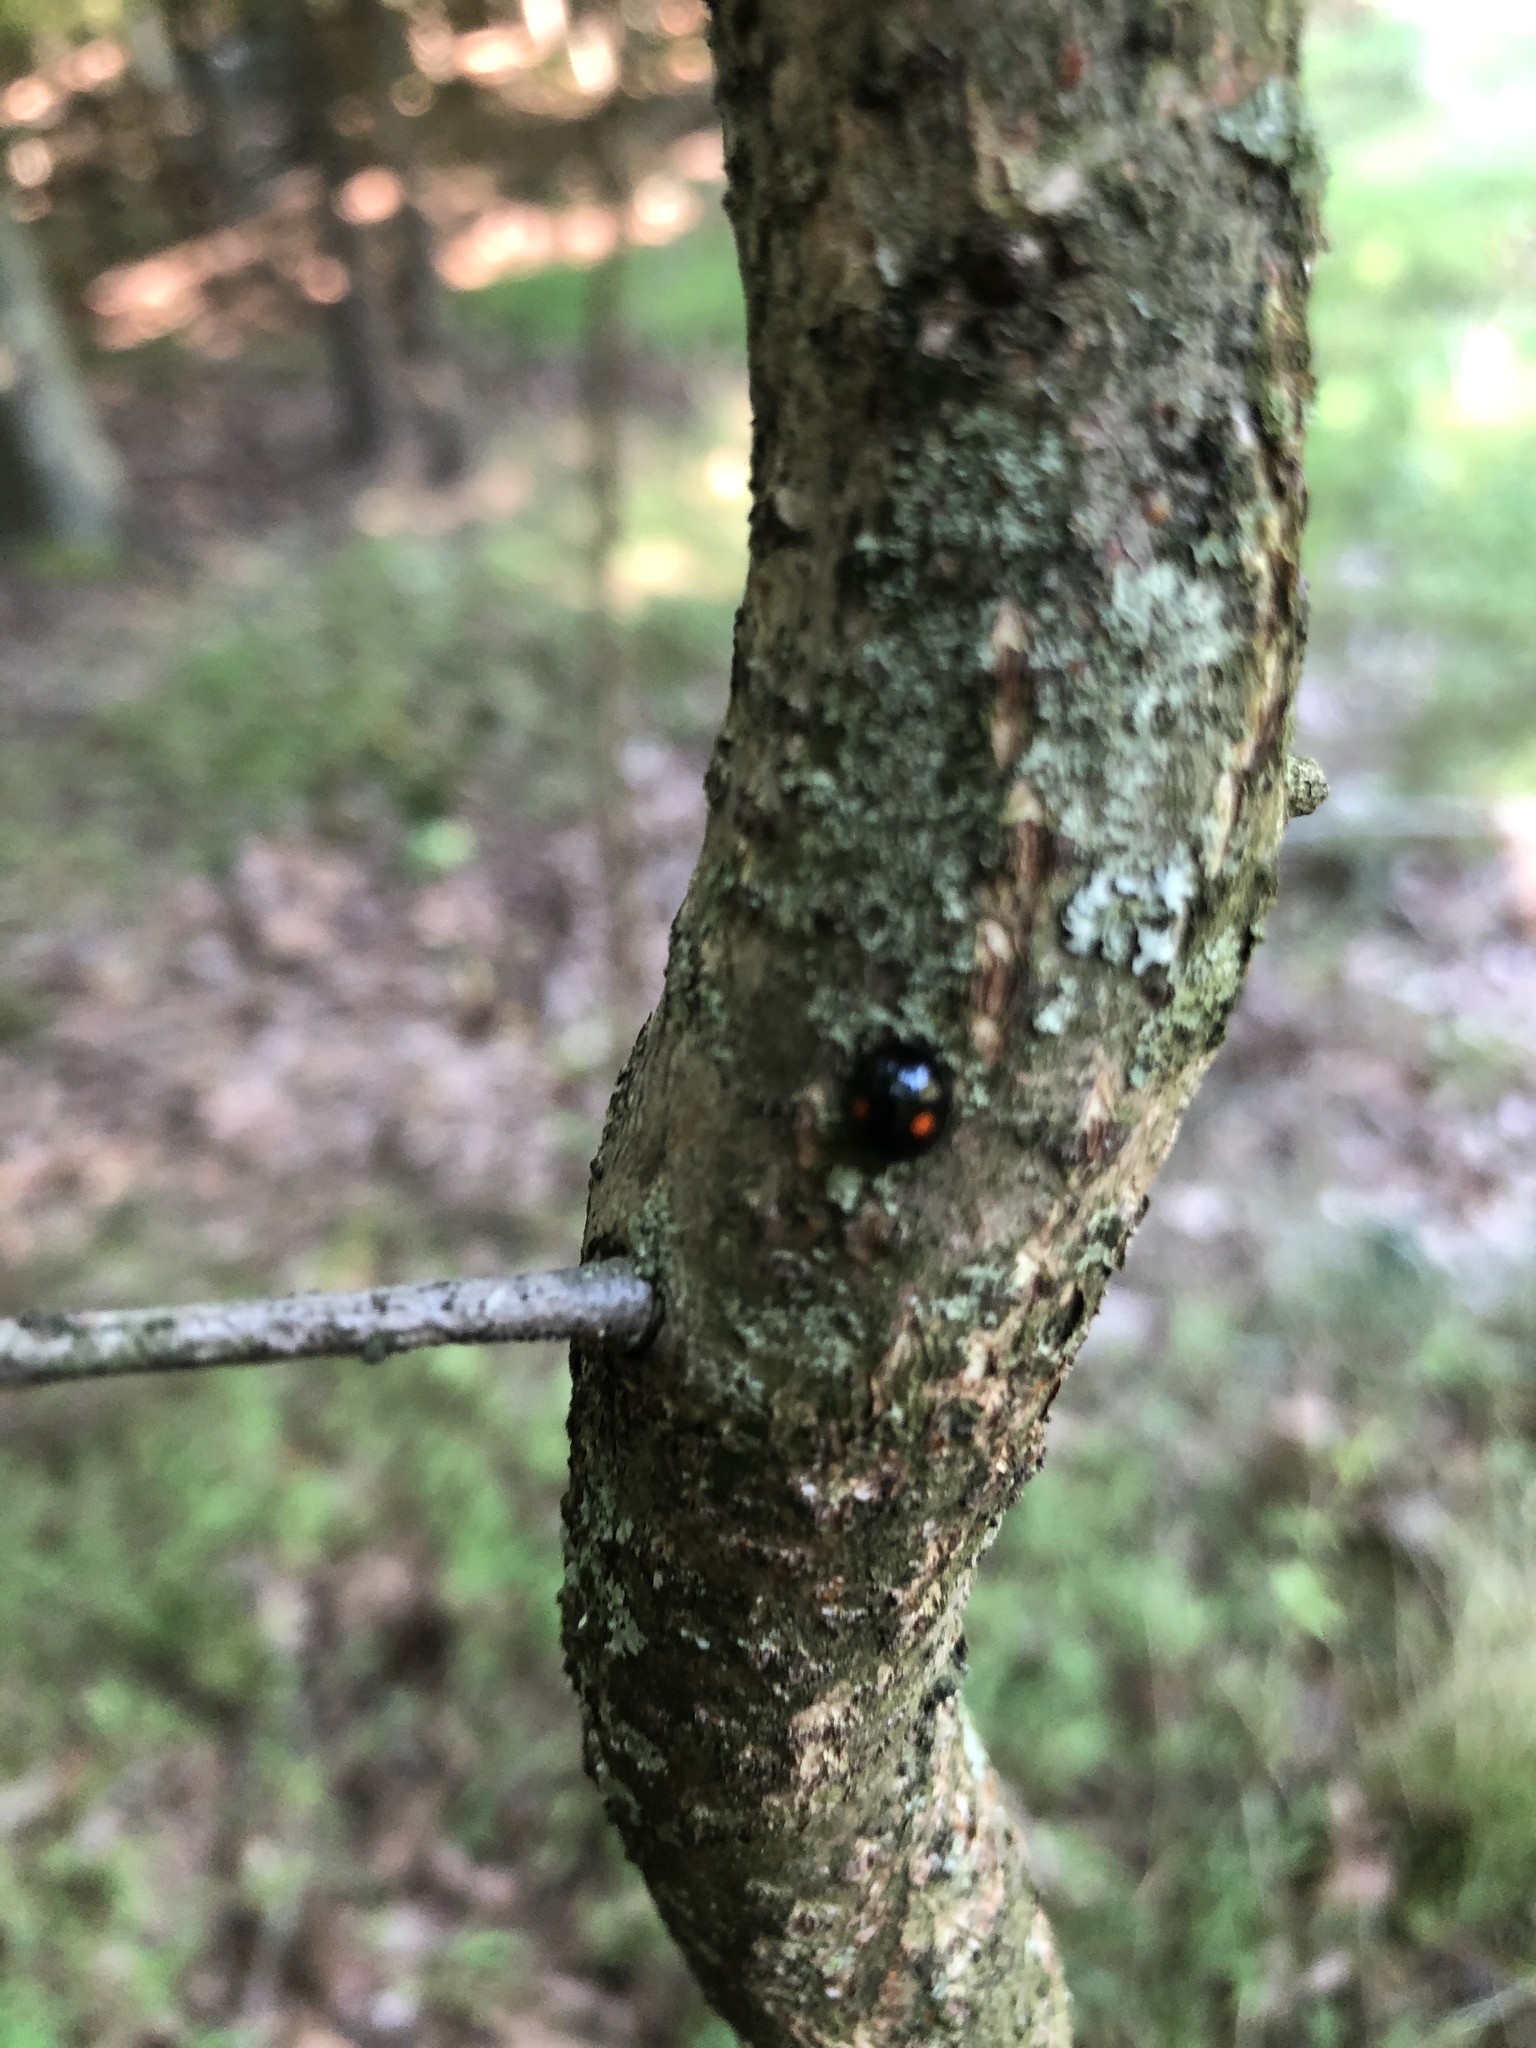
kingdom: Animalia
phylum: Arthropoda
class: Insecta
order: Coleoptera
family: Coccinellidae
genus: Chilocorus
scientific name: Chilocorus stigma
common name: Twicestabbed lady beetle
